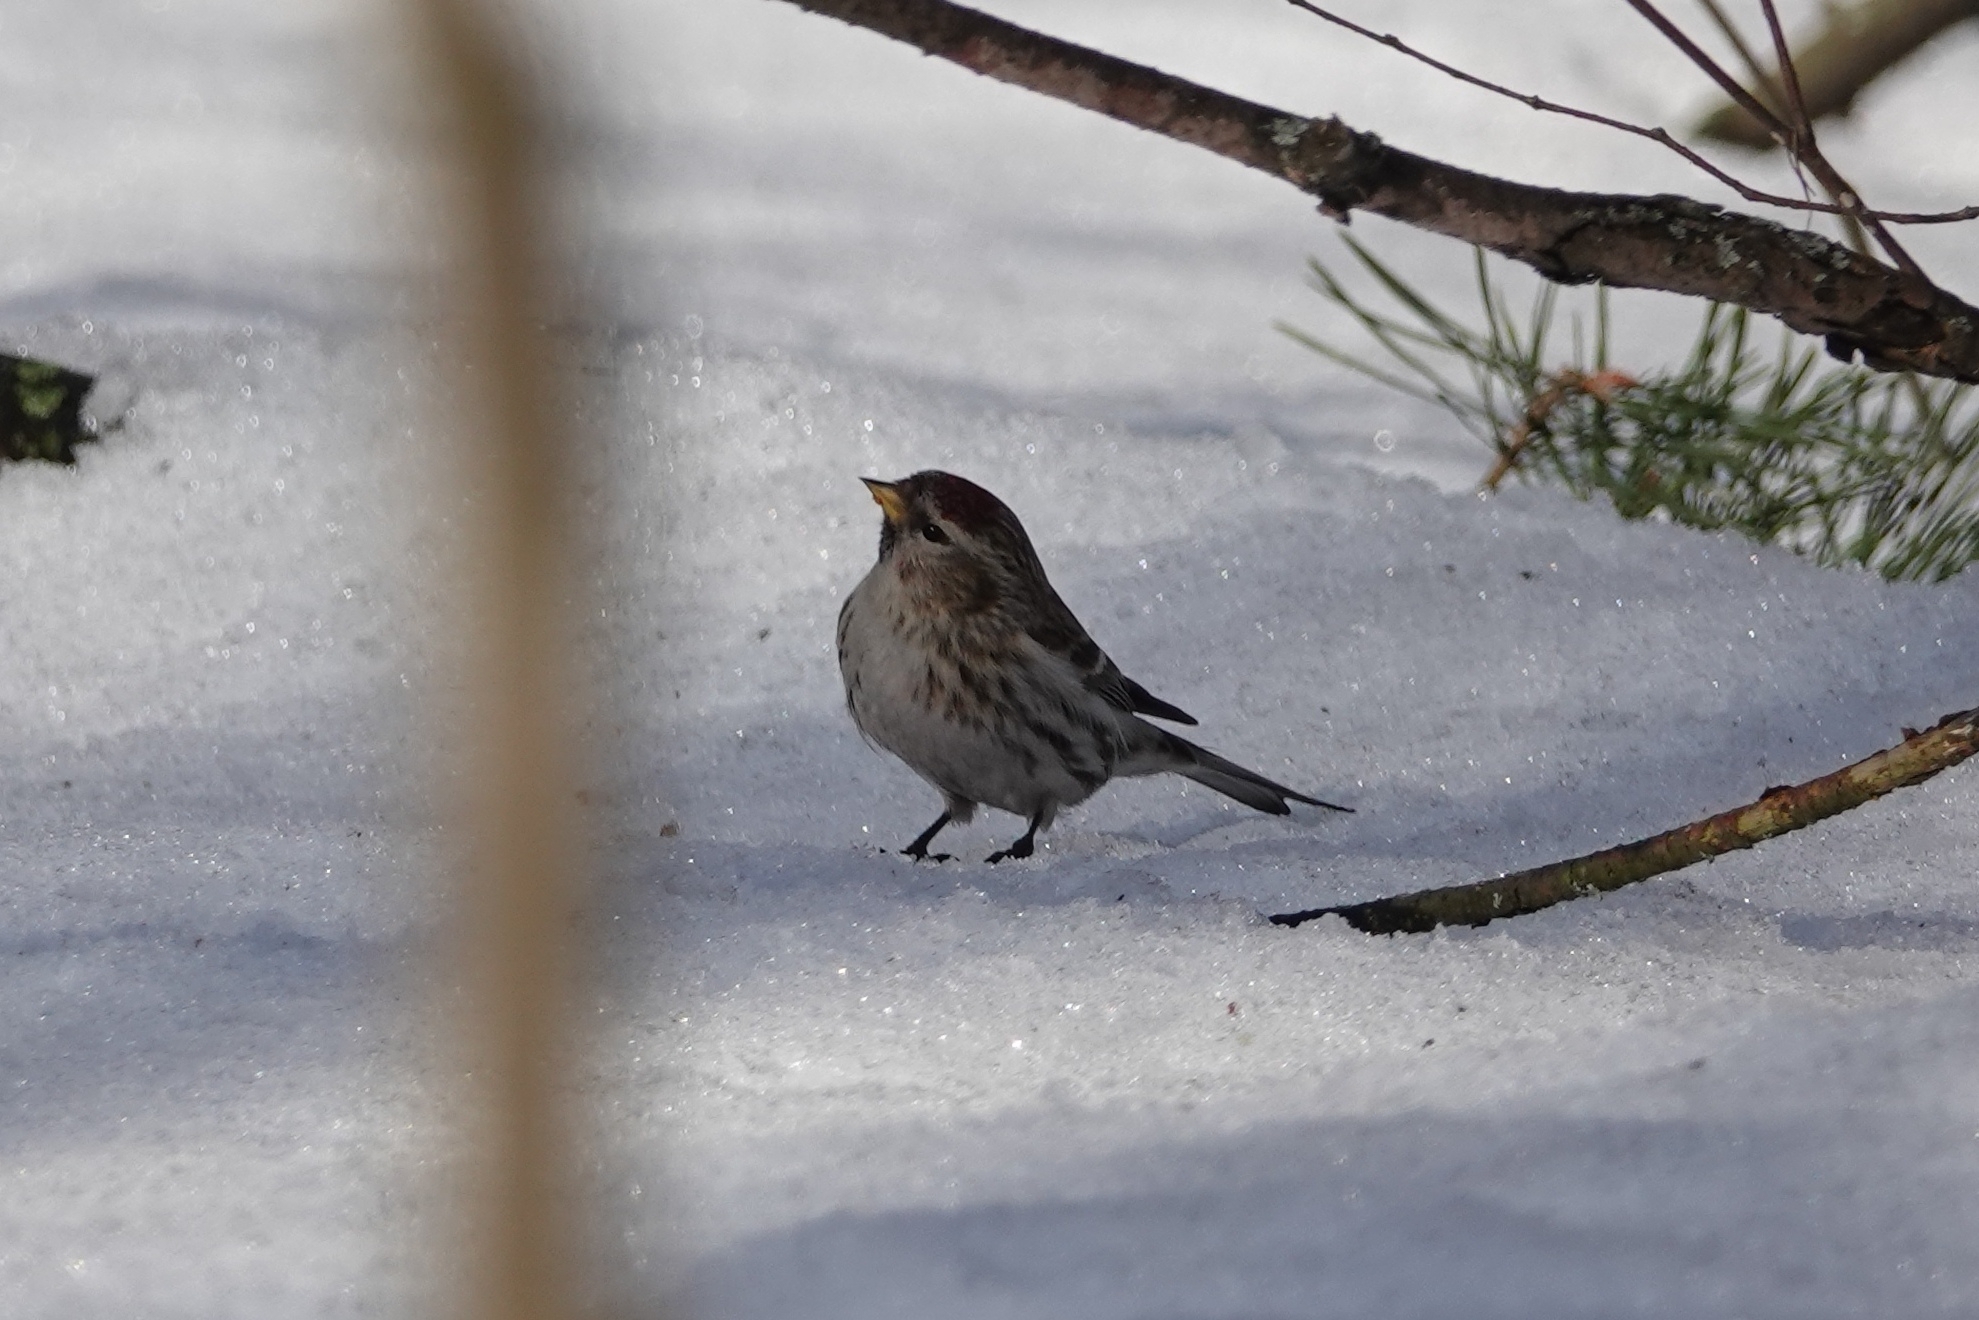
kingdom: Animalia
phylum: Chordata
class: Aves
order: Passeriformes
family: Fringillidae
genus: Acanthis
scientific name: Acanthis flammea
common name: Common redpoll
